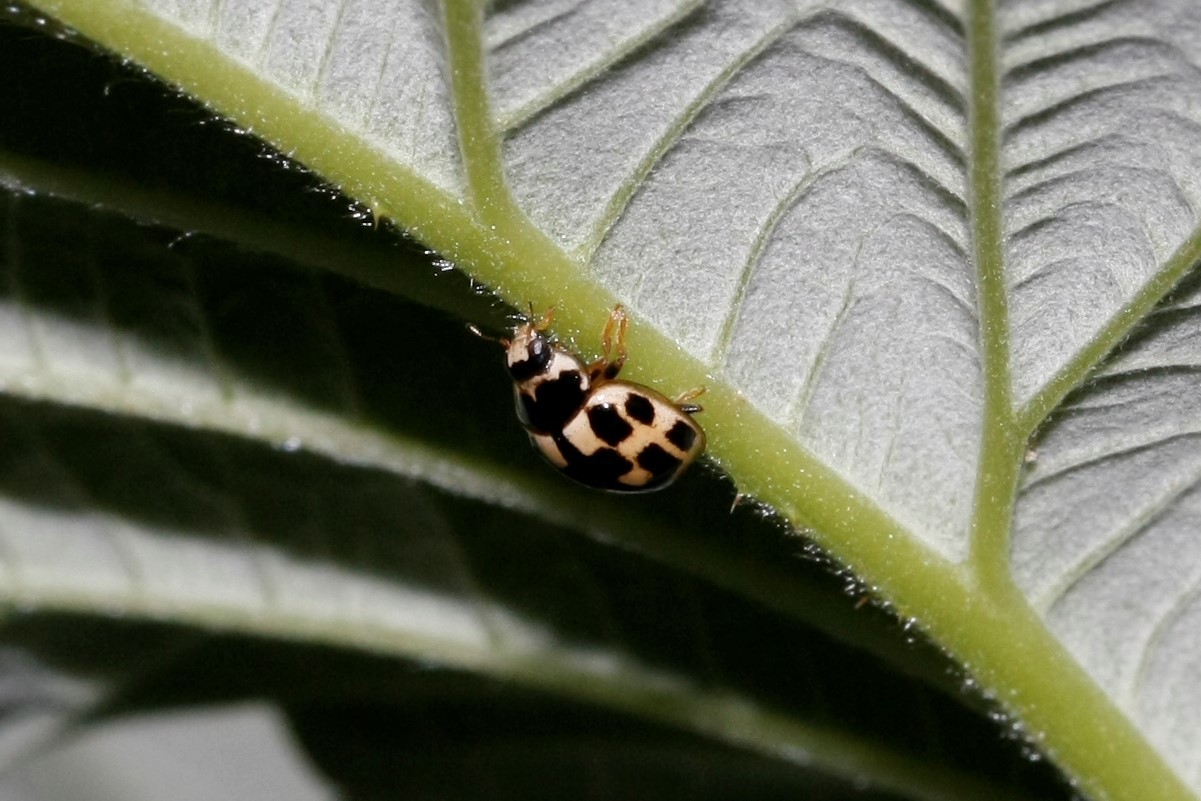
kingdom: Animalia
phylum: Arthropoda
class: Insecta
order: Coleoptera
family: Coccinellidae
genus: Propylaea
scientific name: Propylaea quatuordecimpunctata
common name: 14-spotted ladybird beetle
